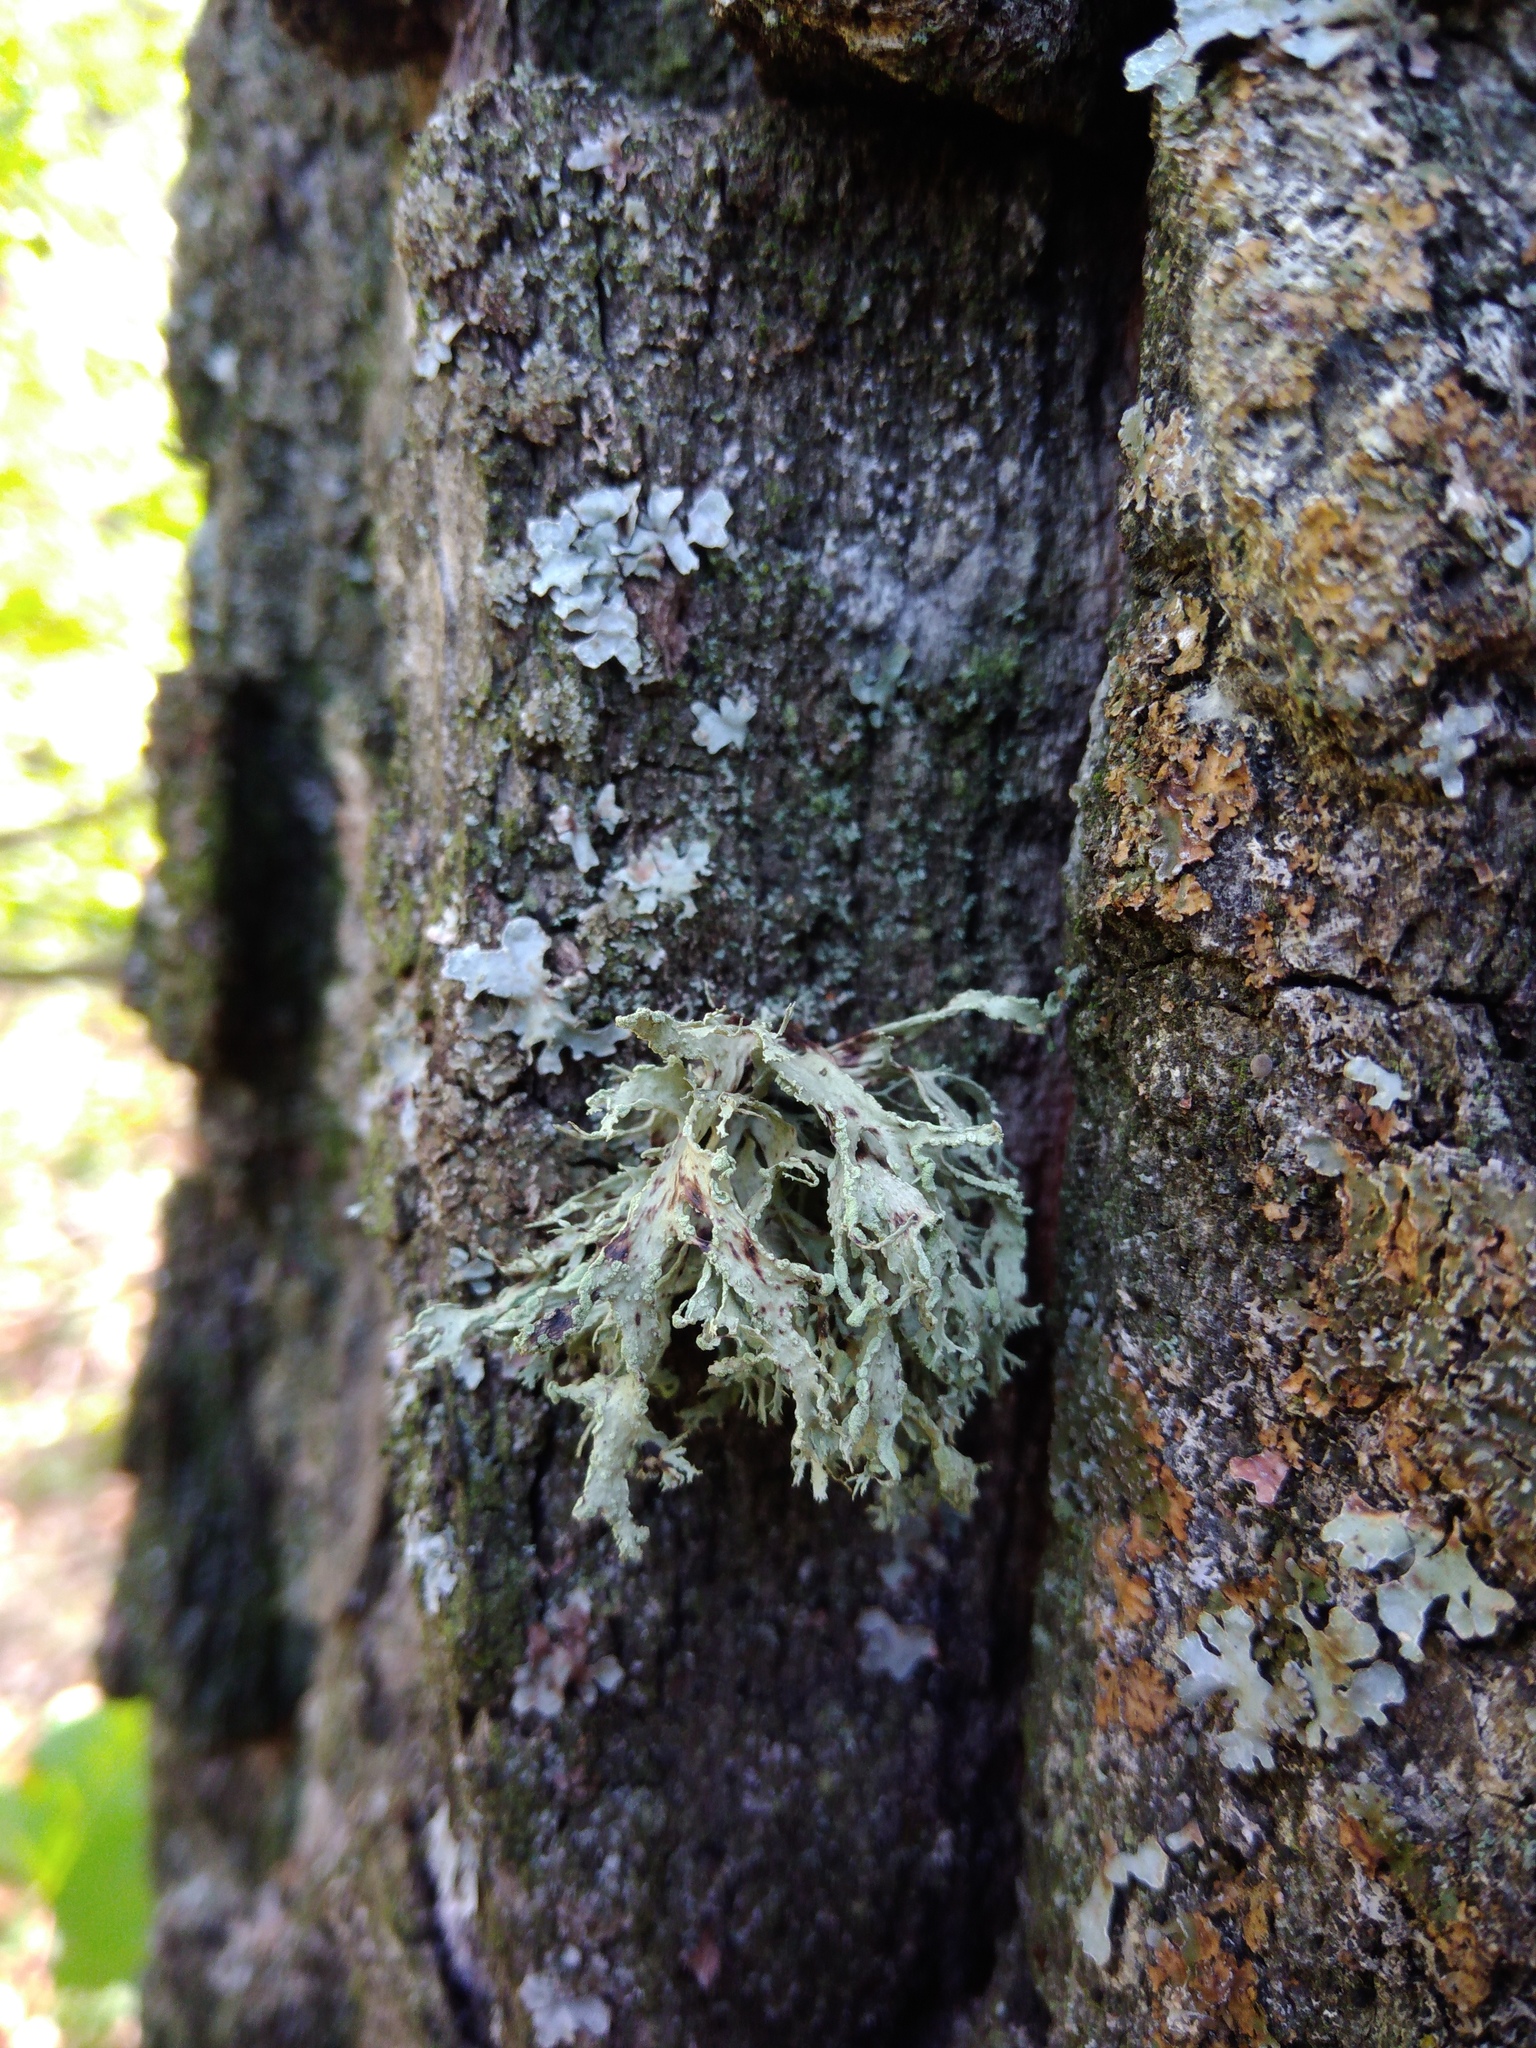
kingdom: Fungi
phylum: Ascomycota
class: Lecanoromycetes
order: Lecanorales
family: Ramalinaceae
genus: Ramalina
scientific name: Ramalina farinacea
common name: Farinose cartilage lichen
